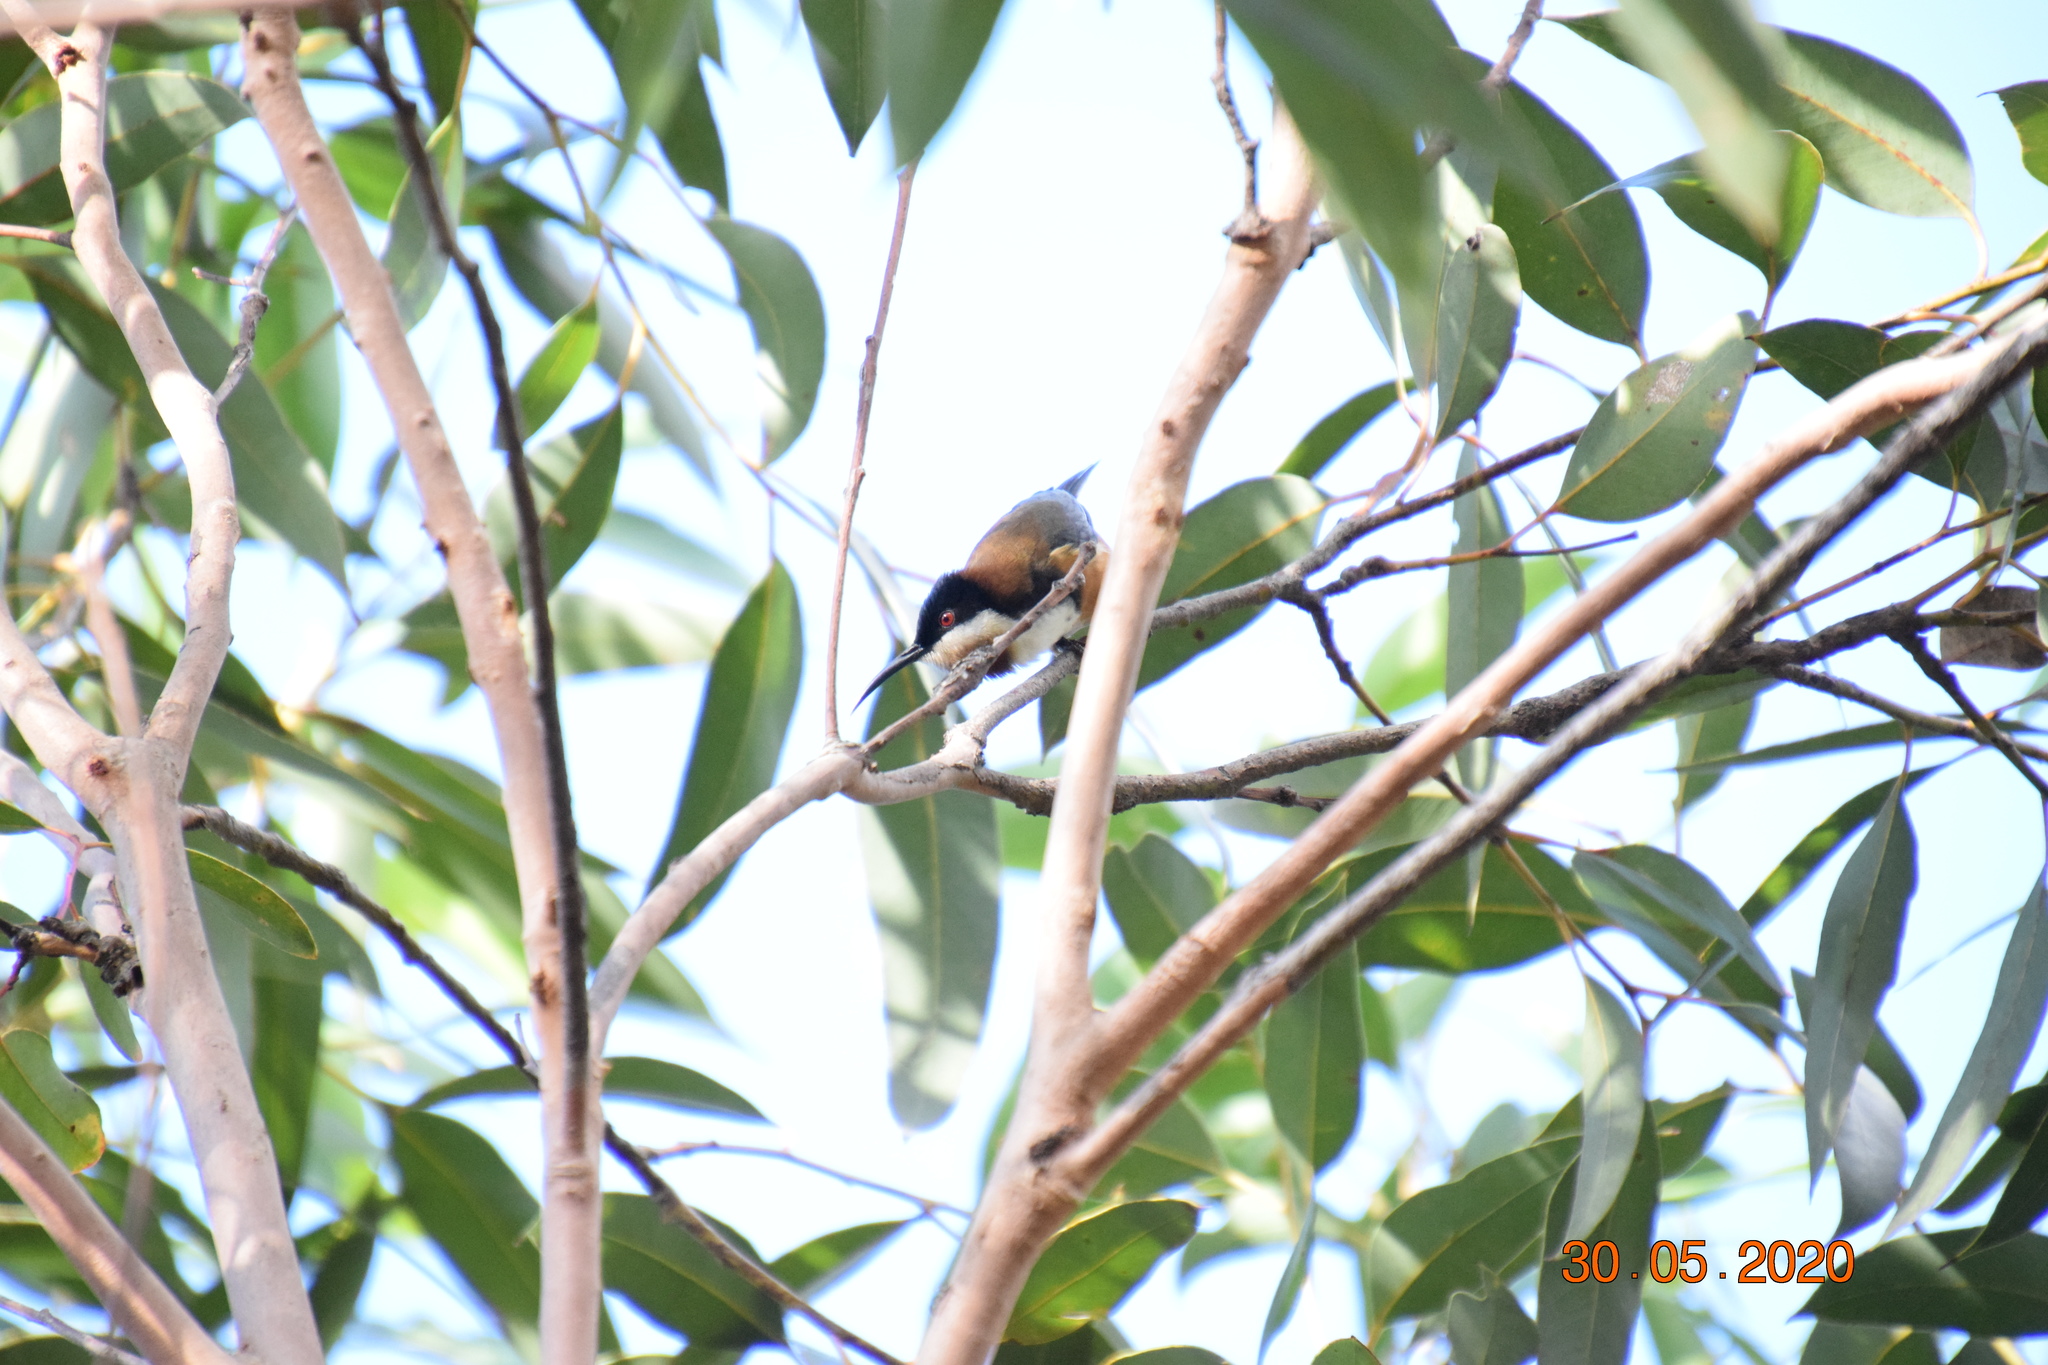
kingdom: Animalia
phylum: Chordata
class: Aves
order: Passeriformes
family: Meliphagidae
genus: Acanthorhynchus
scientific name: Acanthorhynchus tenuirostris
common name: Eastern spinebill
